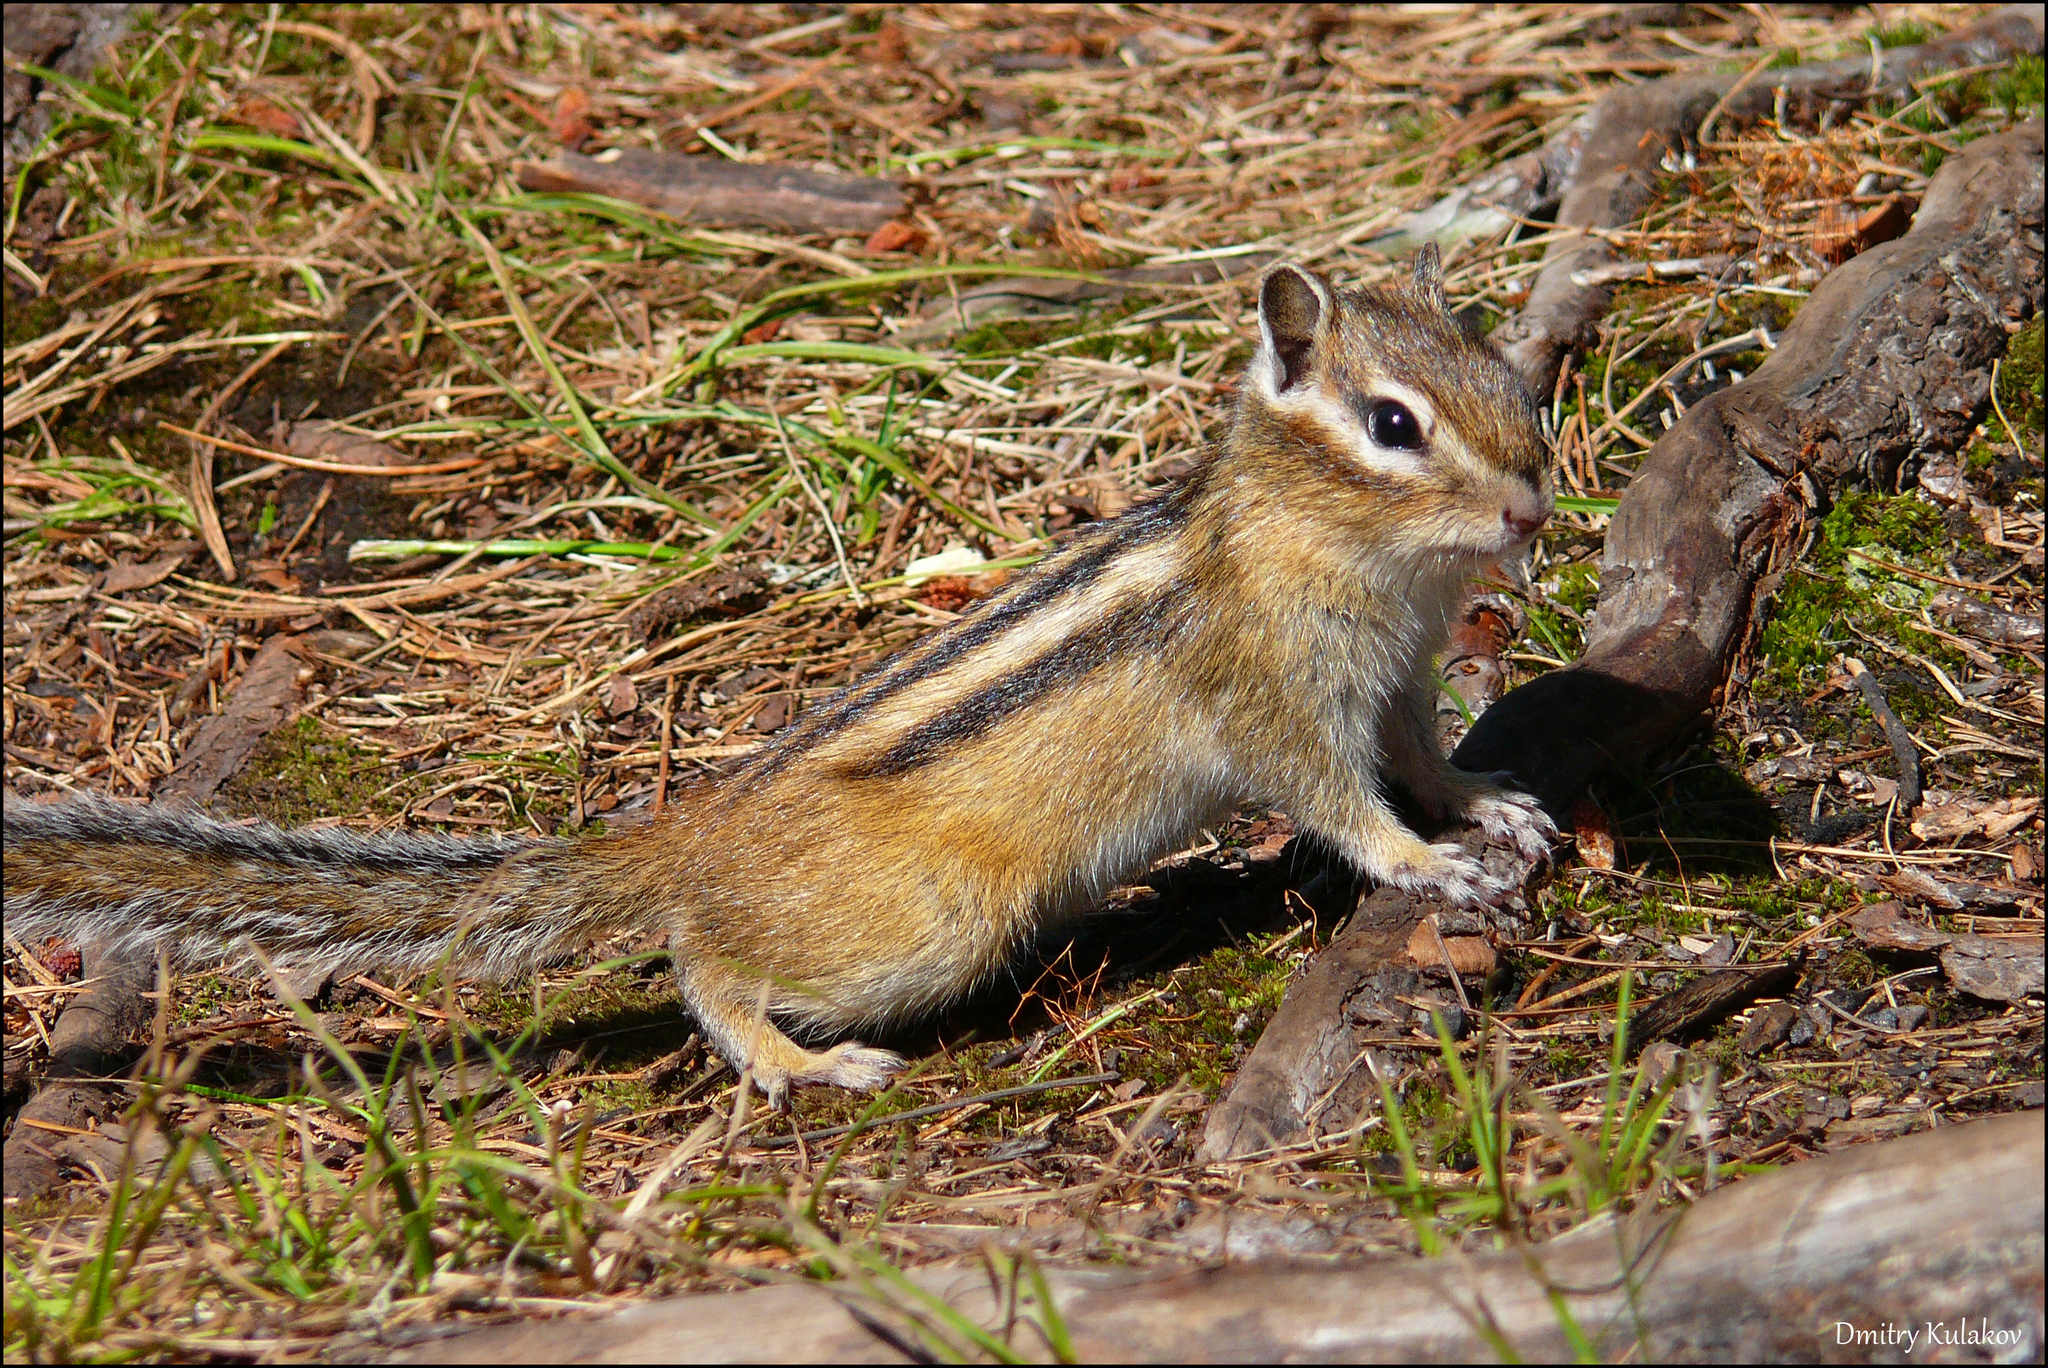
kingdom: Animalia
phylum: Chordata
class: Mammalia
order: Rodentia
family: Sciuridae
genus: Tamias
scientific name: Tamias sibiricus
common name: Siberian chipmunk
